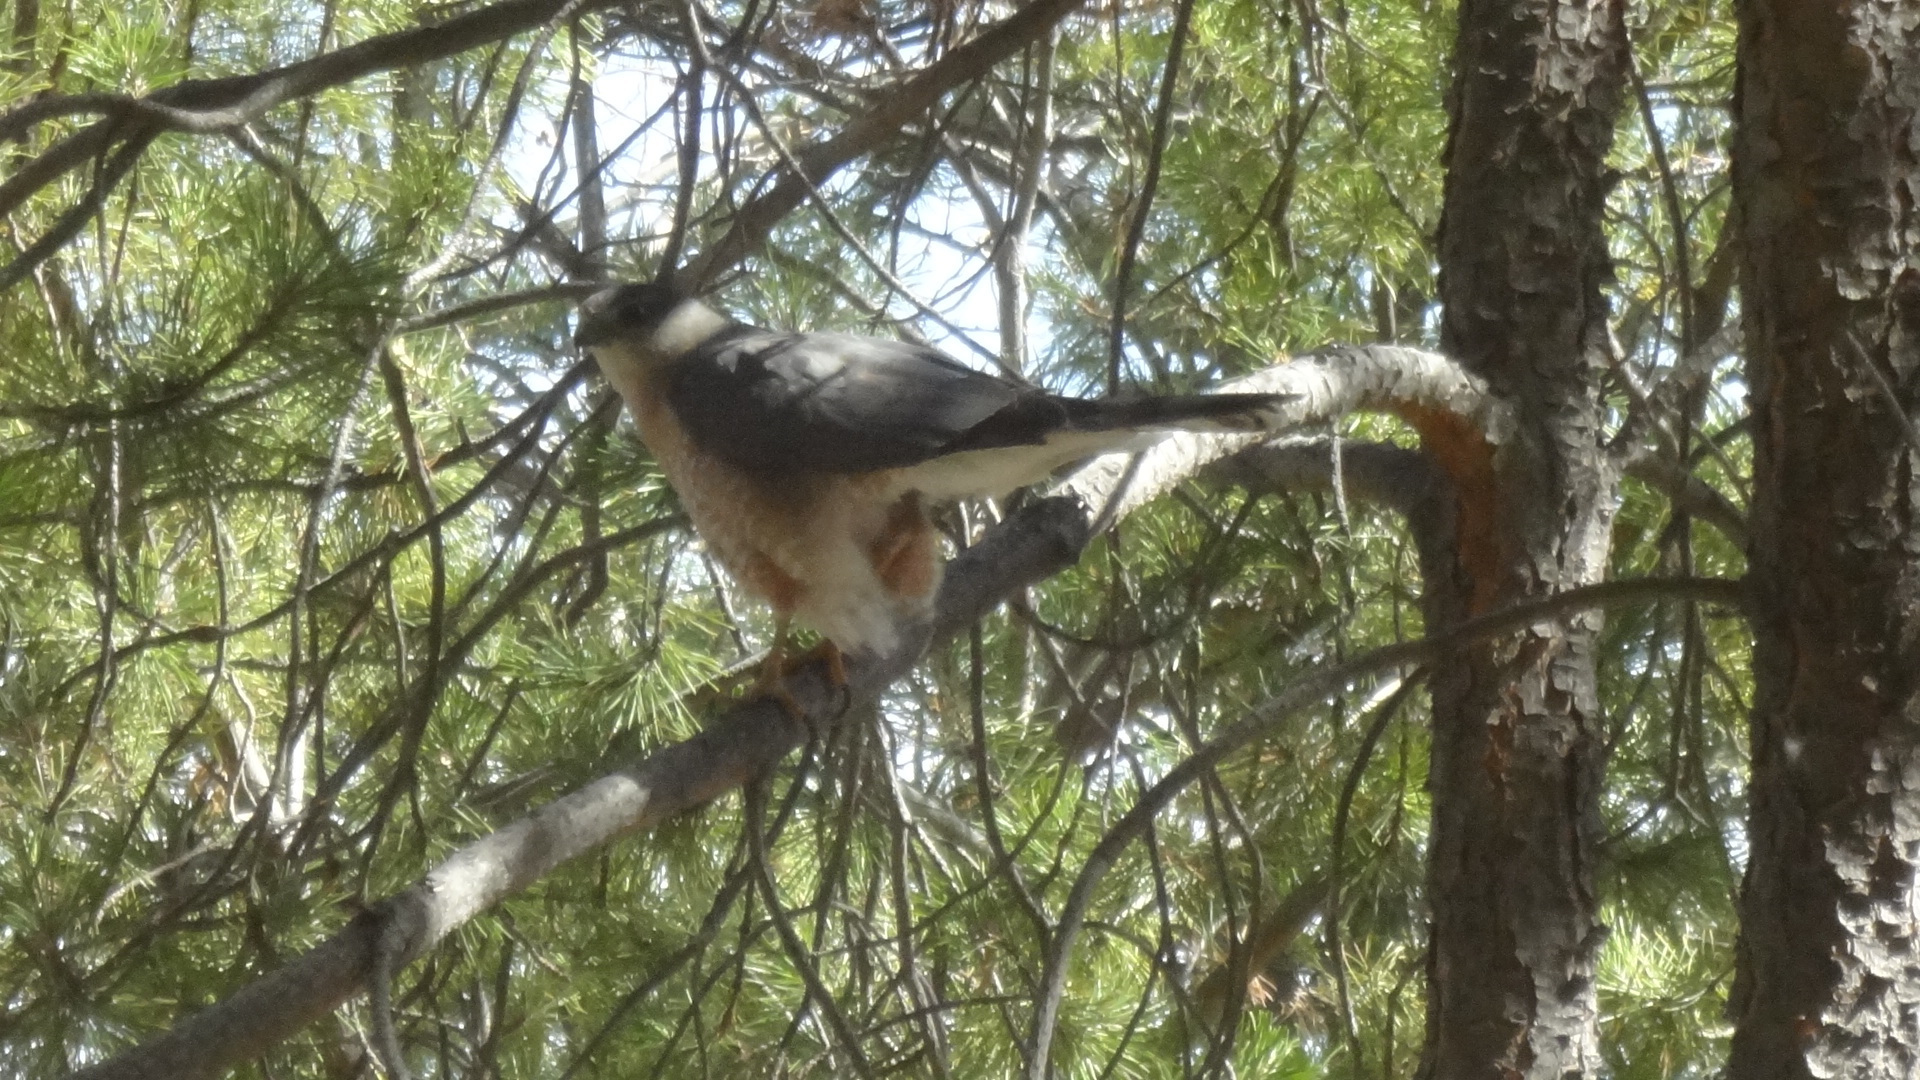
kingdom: Animalia
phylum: Chordata
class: Aves
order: Accipitriformes
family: Accipitridae
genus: Accipiter
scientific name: Accipiter cooperii
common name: Cooper's hawk
